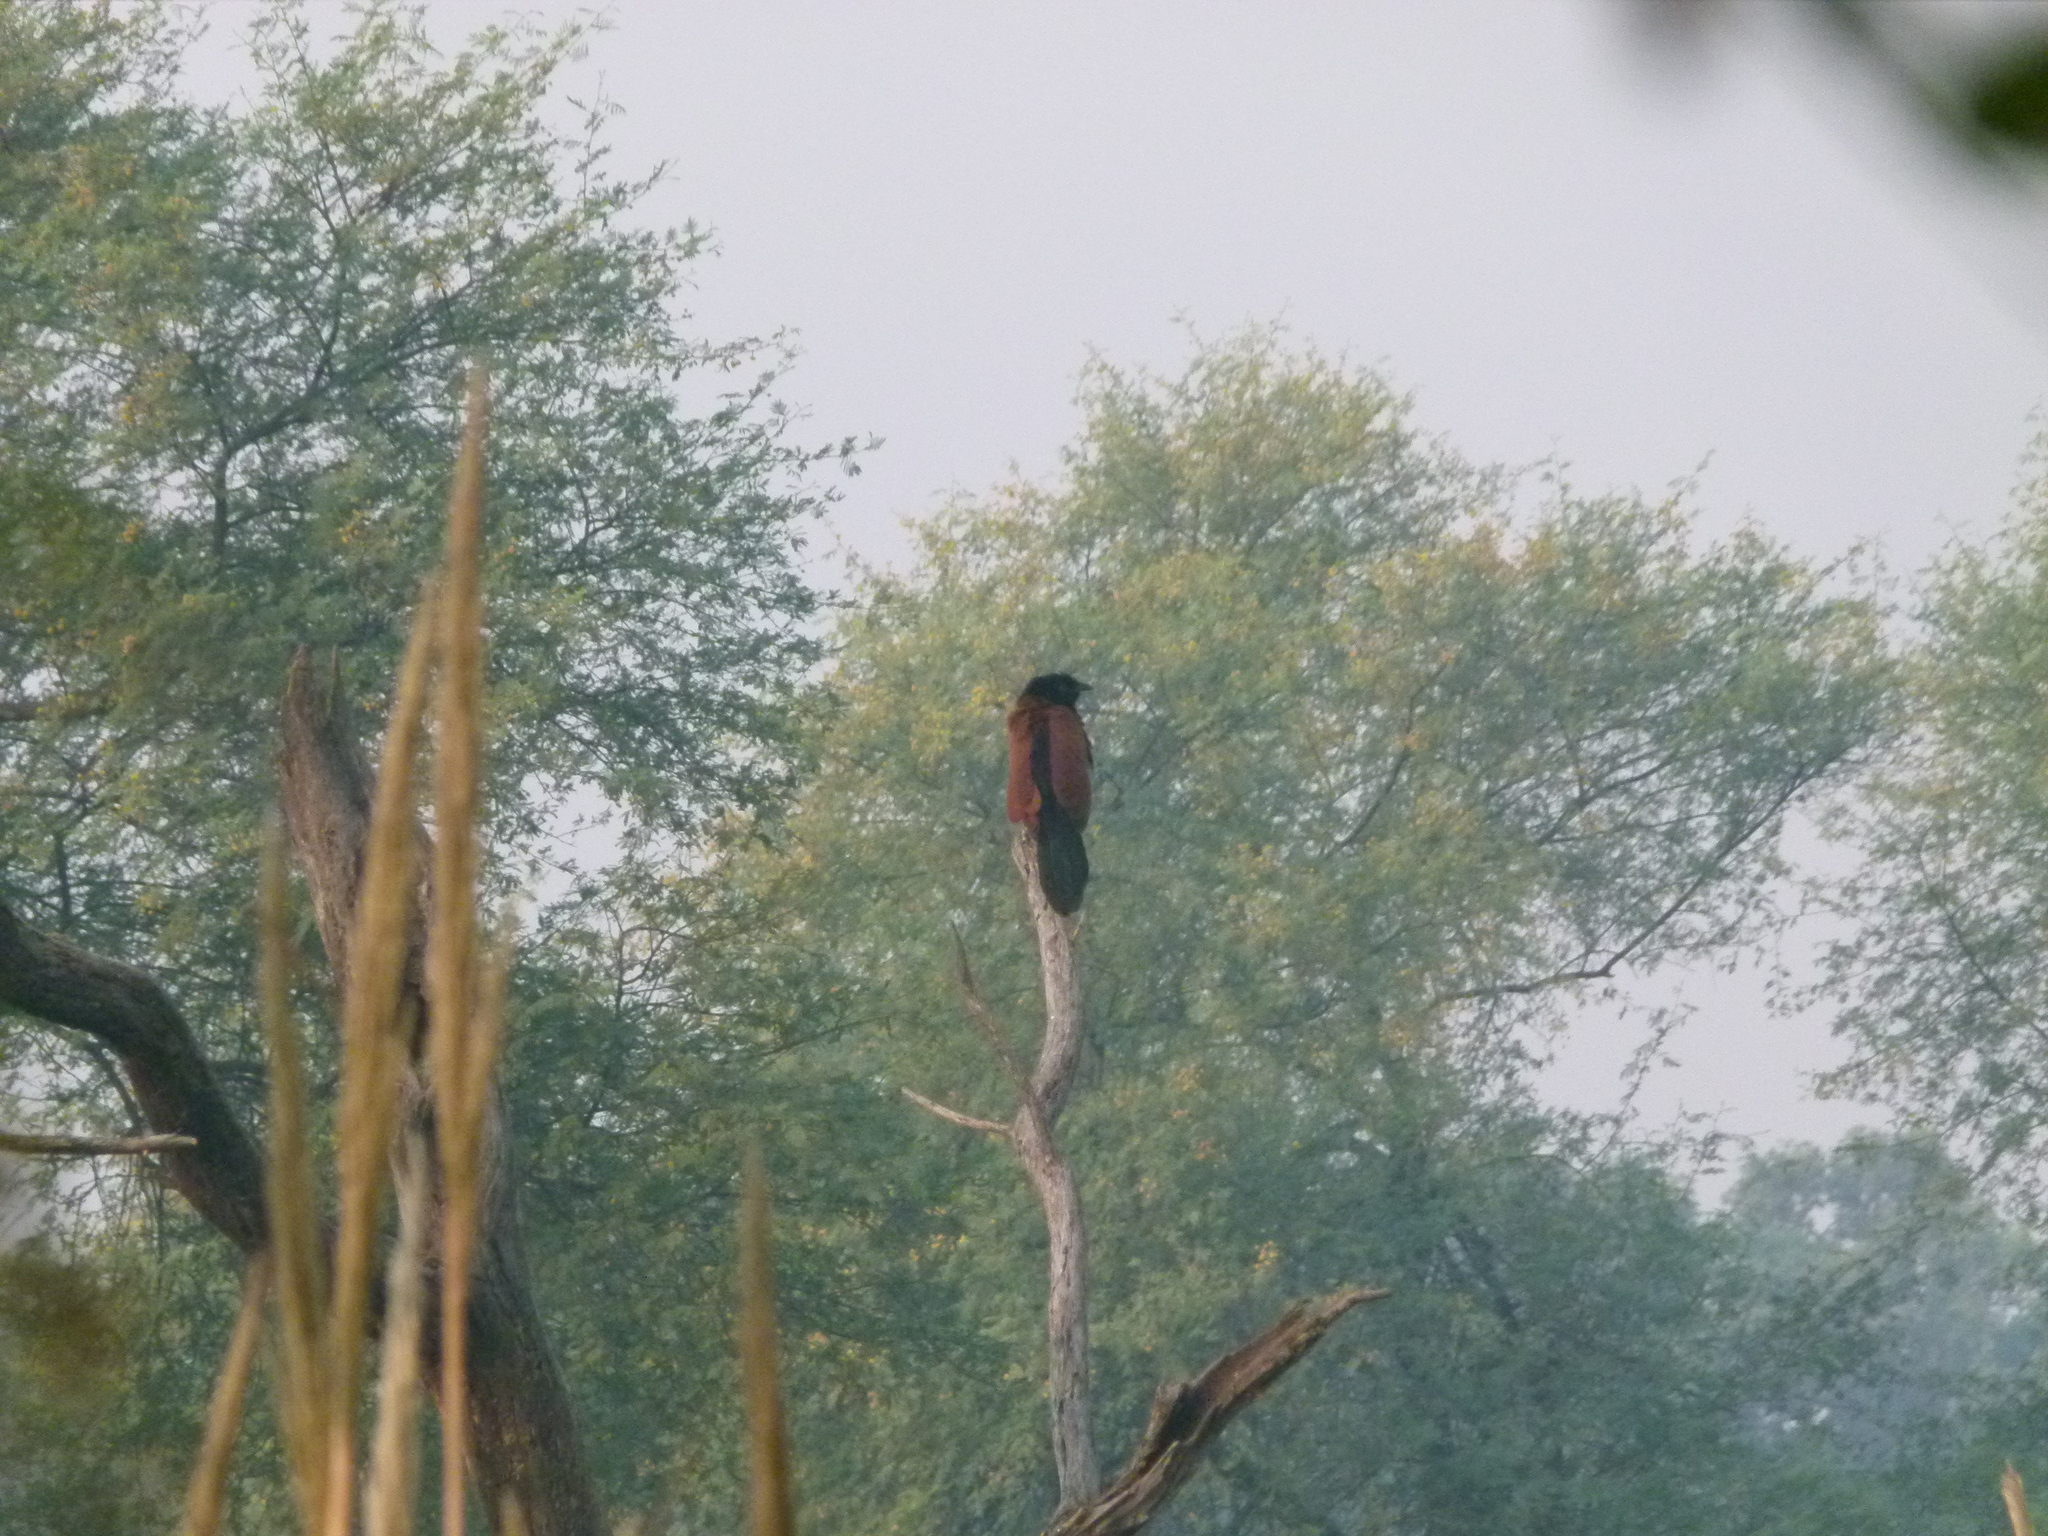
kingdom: Animalia
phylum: Chordata
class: Aves
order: Cuculiformes
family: Cuculidae
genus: Centropus
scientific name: Centropus sinensis
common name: Greater coucal
